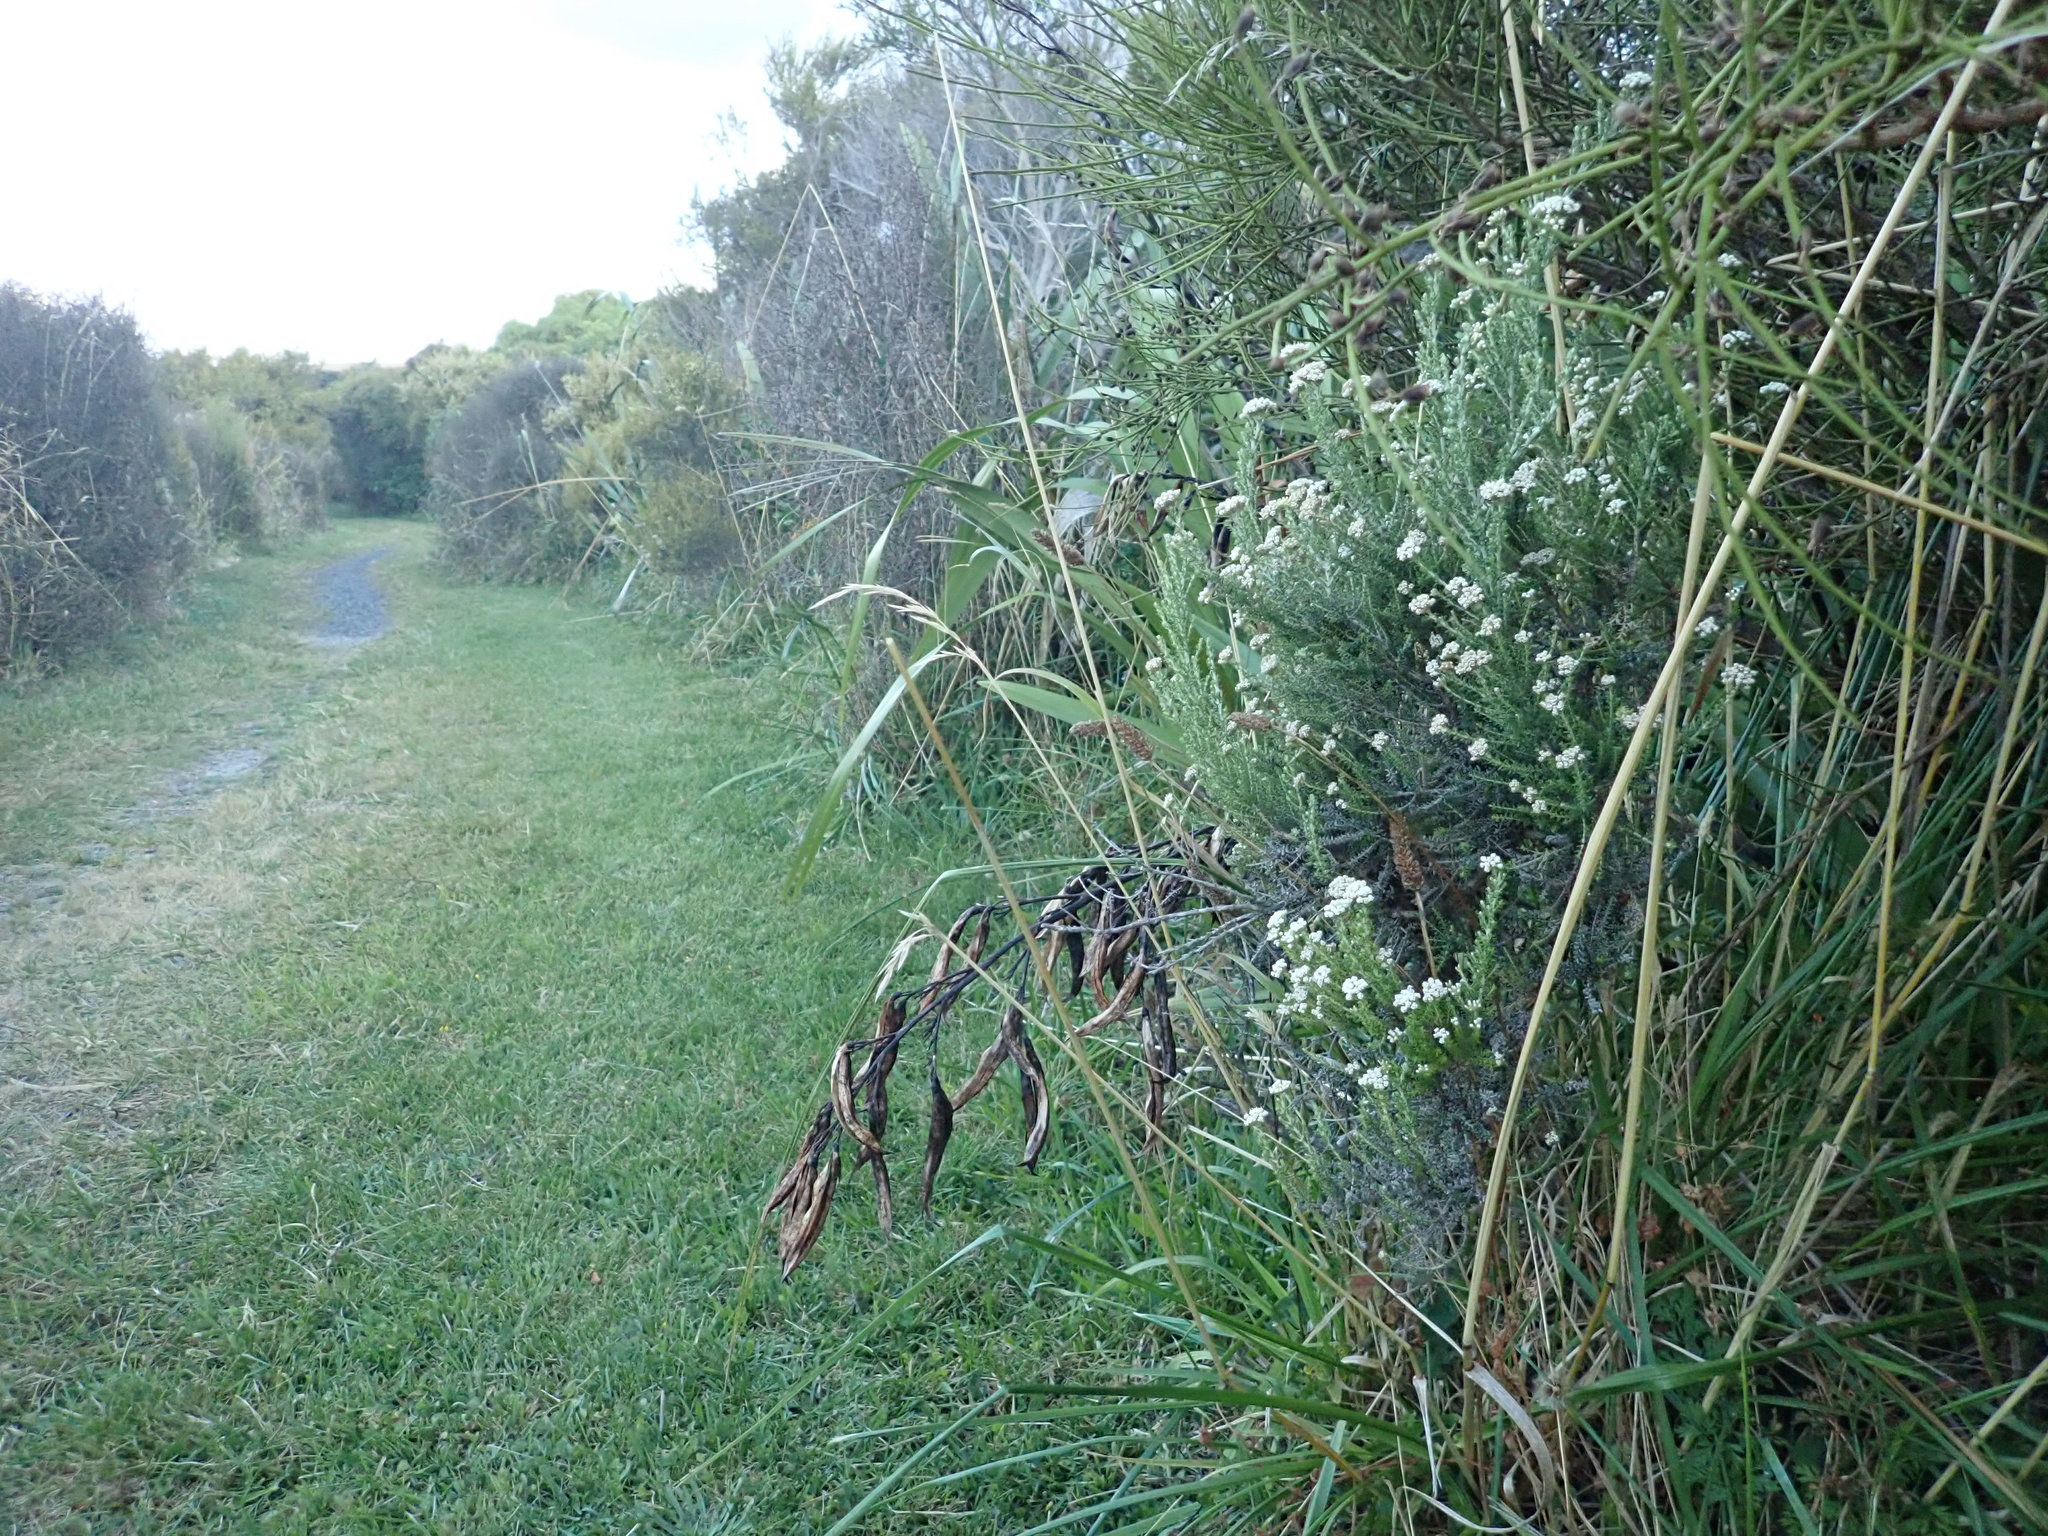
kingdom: Plantae
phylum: Tracheophyta
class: Magnoliopsida
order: Asterales
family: Asteraceae
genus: Ozothamnus
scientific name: Ozothamnus leptophyllus
